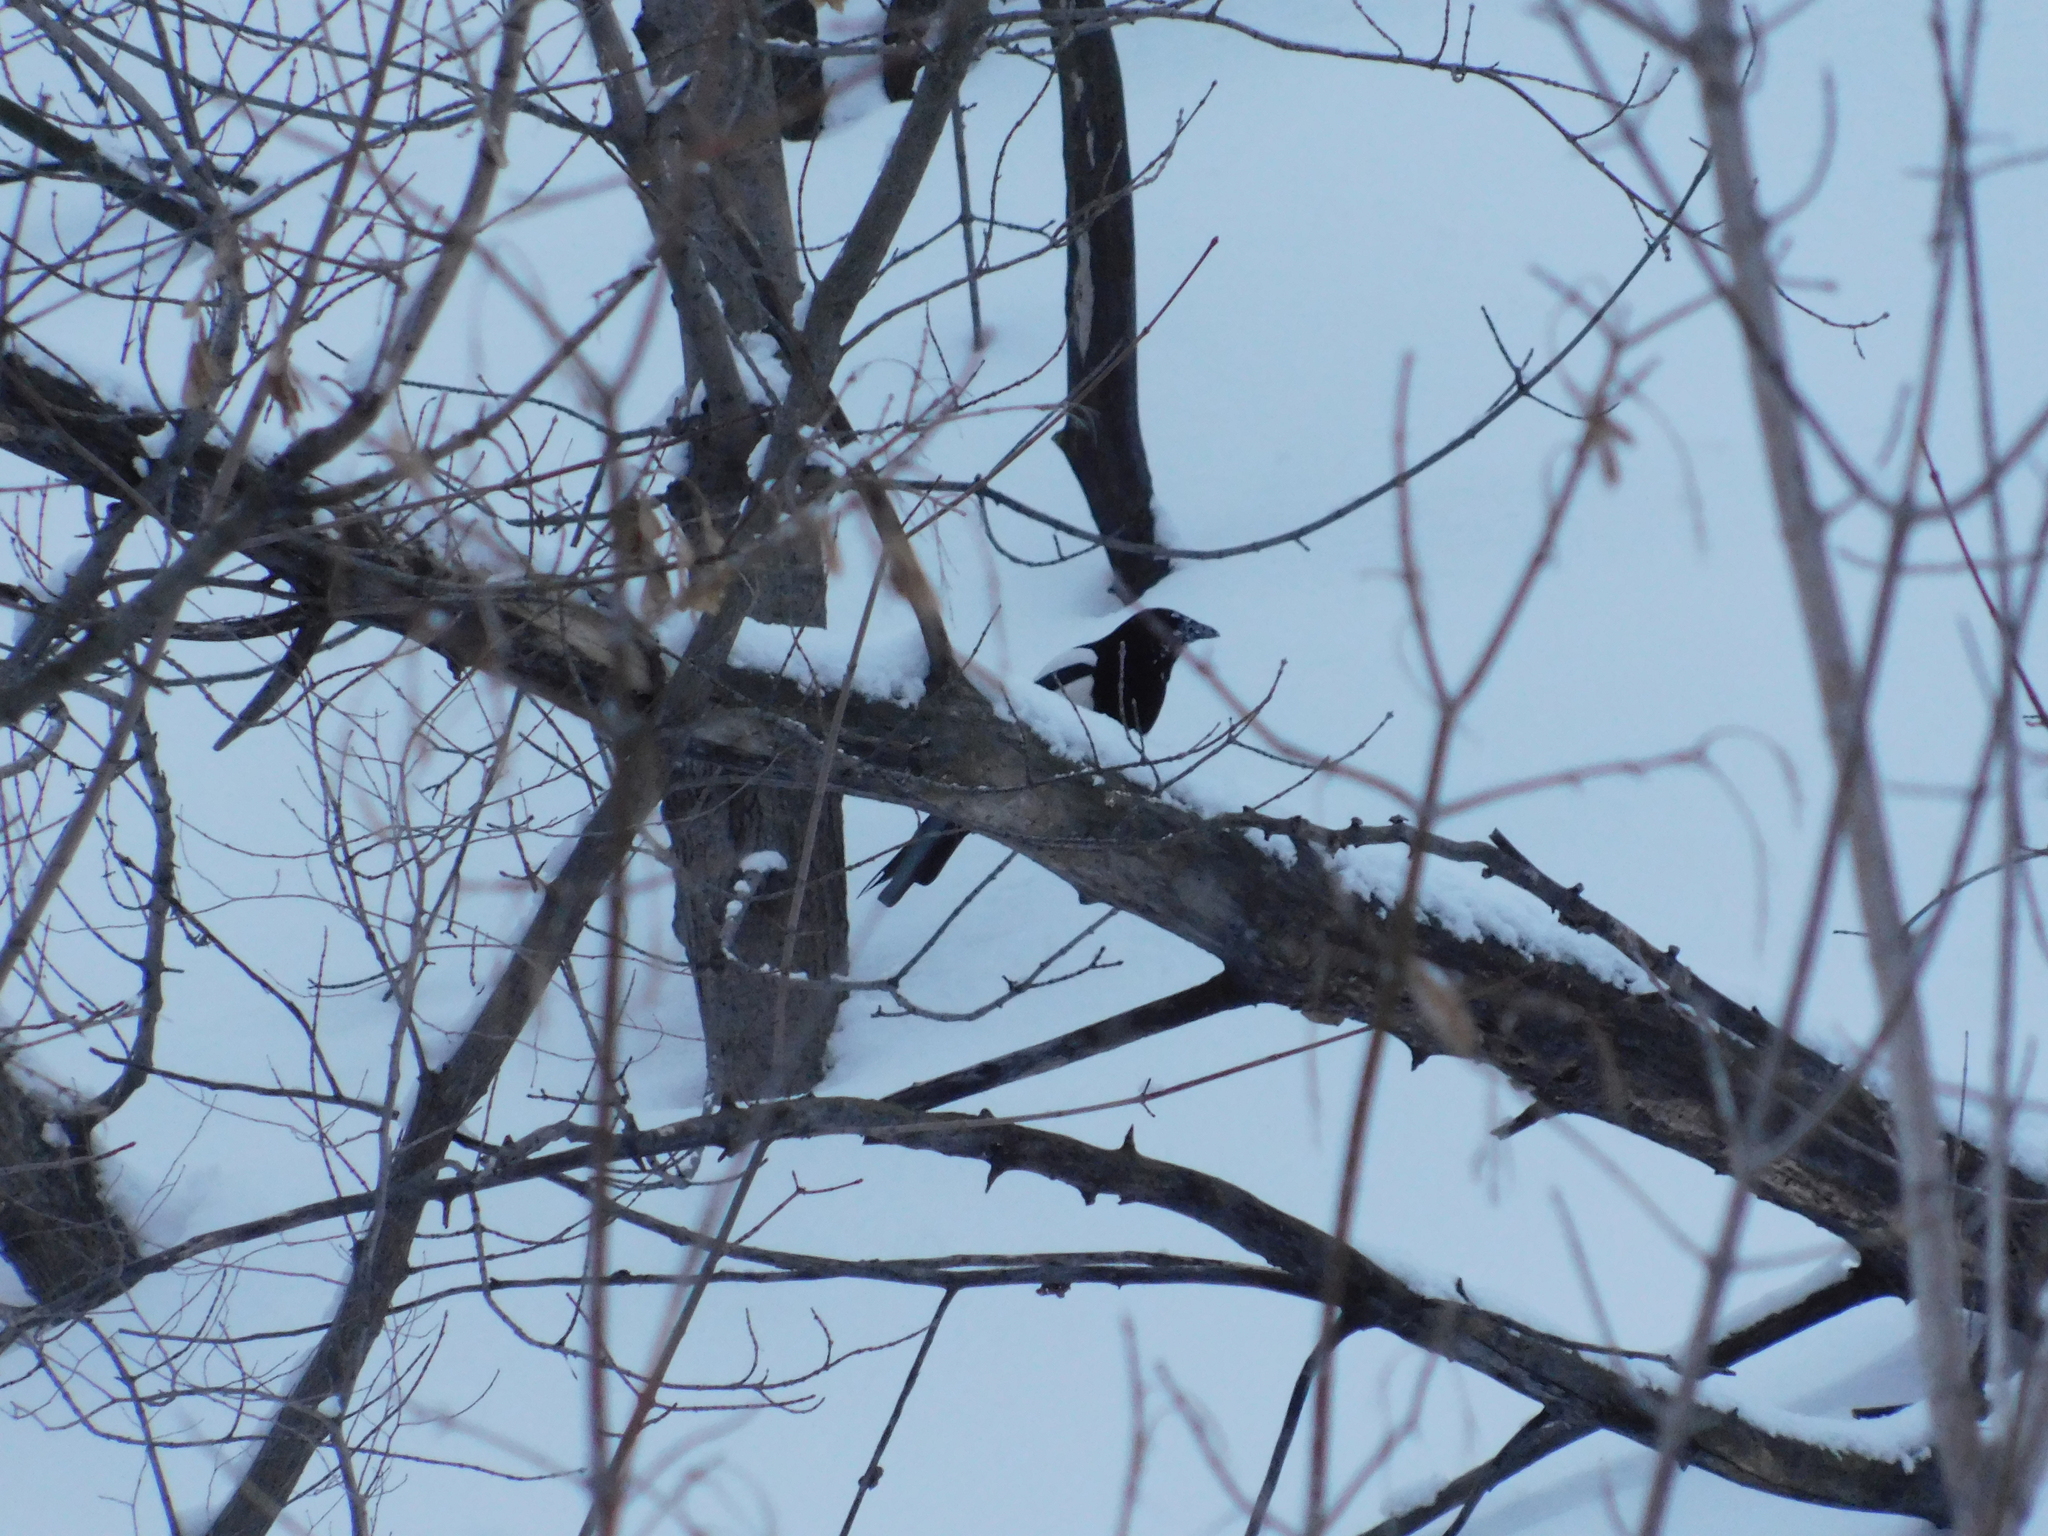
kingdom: Animalia
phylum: Chordata
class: Aves
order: Passeriformes
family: Corvidae
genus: Pica
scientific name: Pica pica
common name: Eurasian magpie
